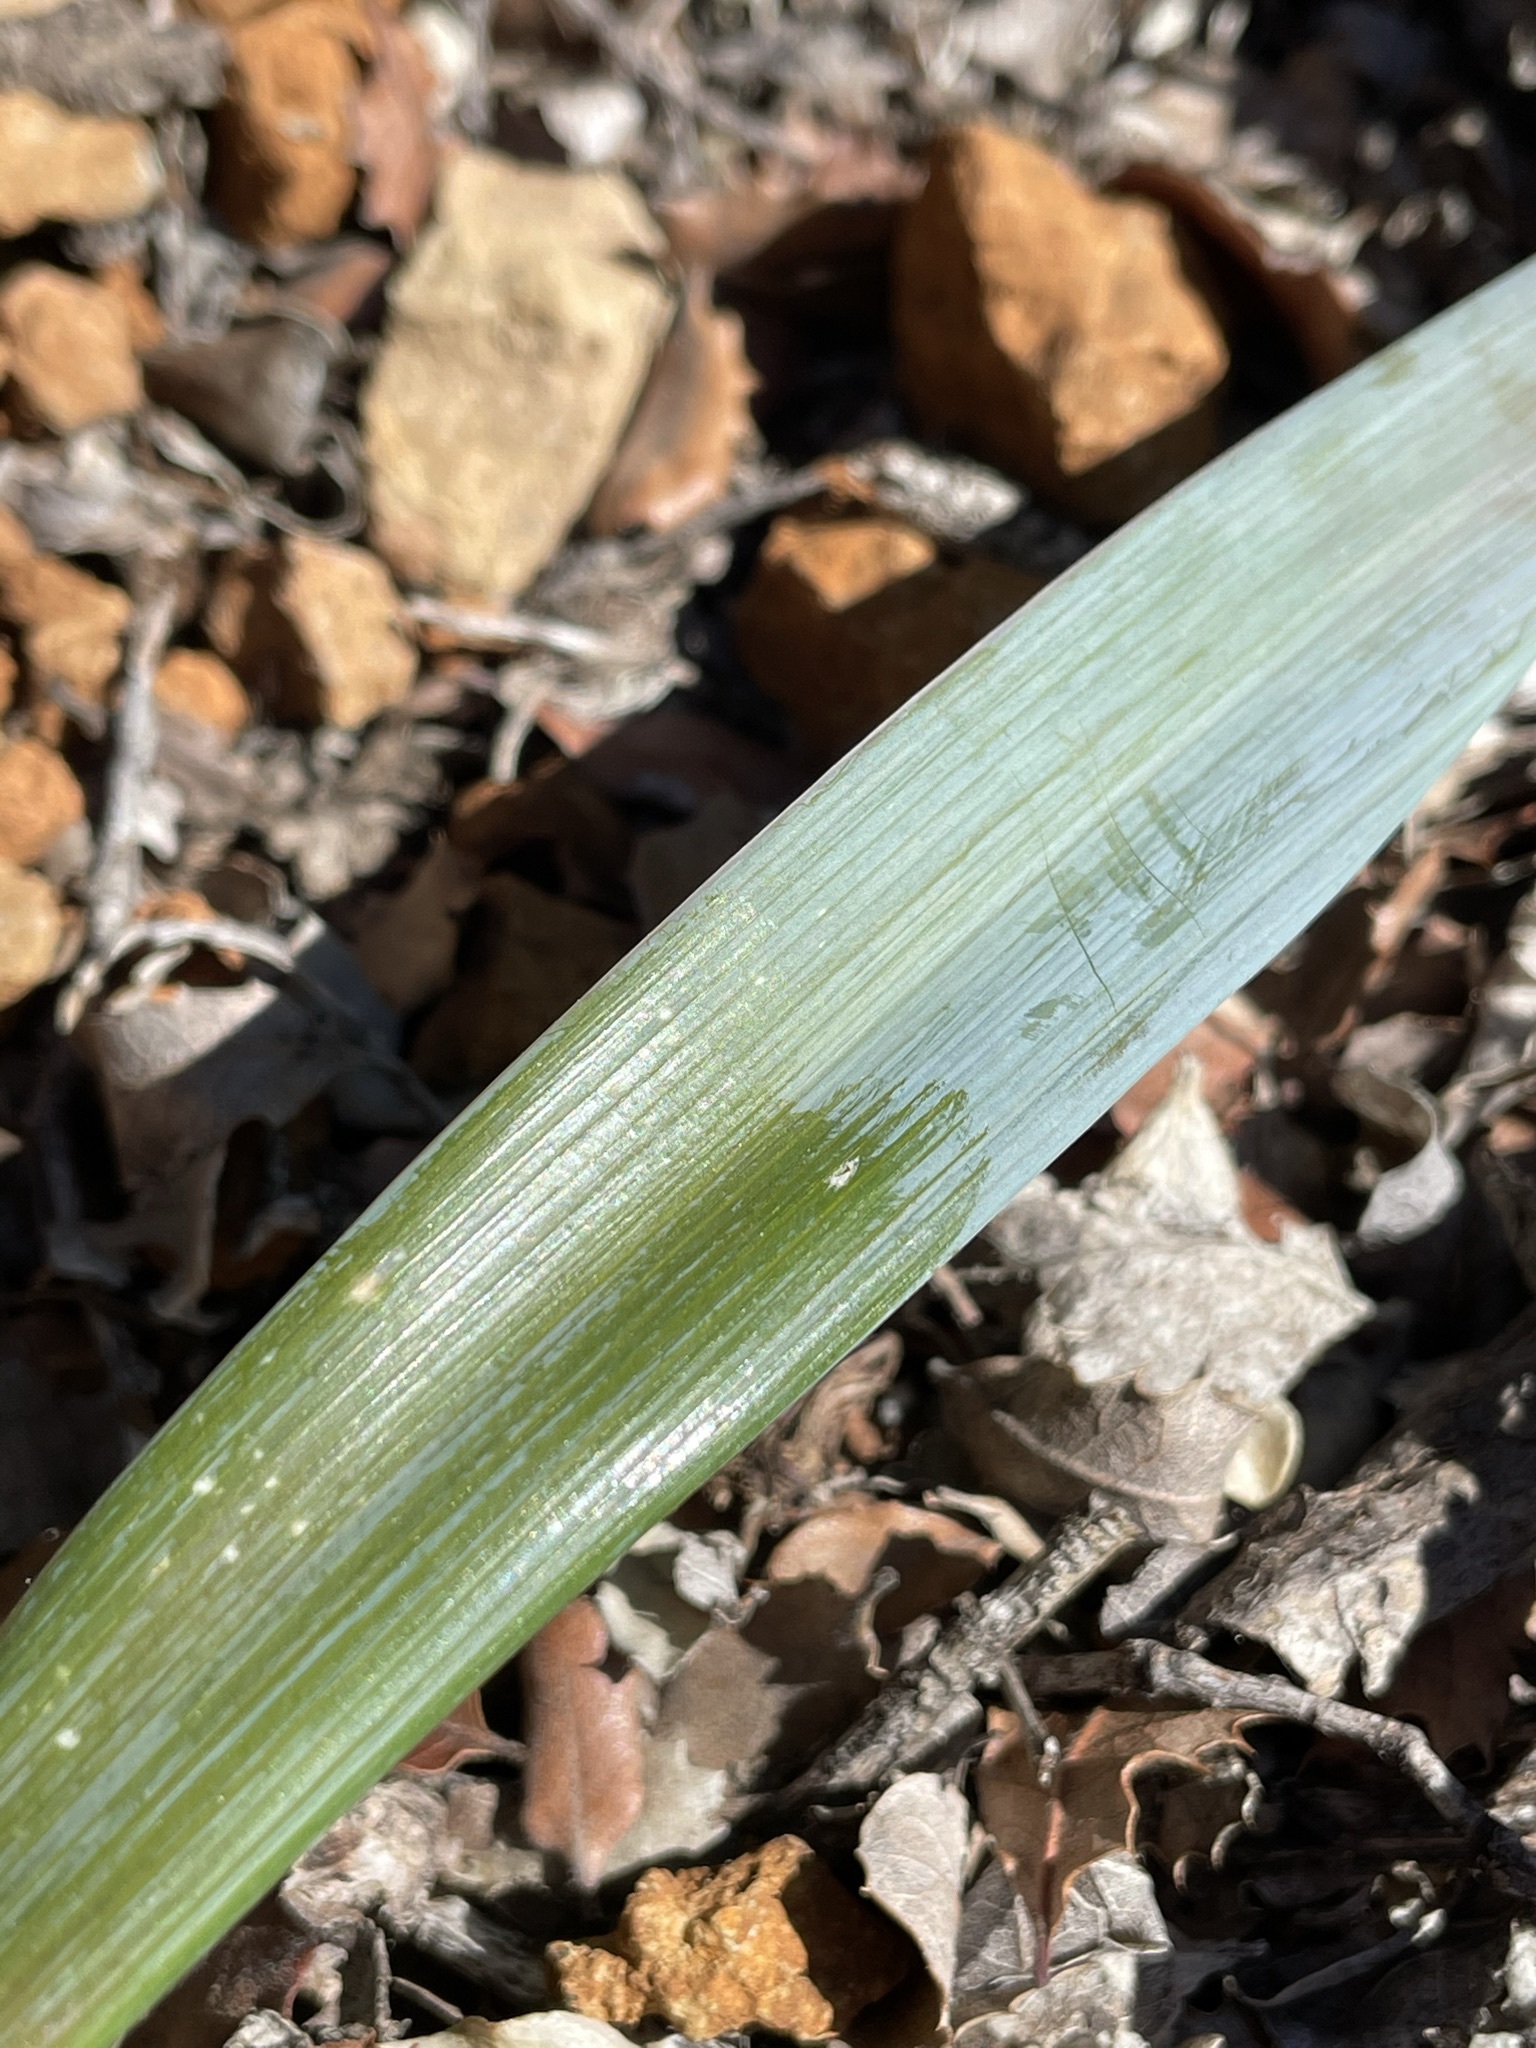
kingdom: Plantae
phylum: Tracheophyta
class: Liliopsida
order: Liliales
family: Liliaceae
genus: Calochortus
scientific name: Calochortus raichei
